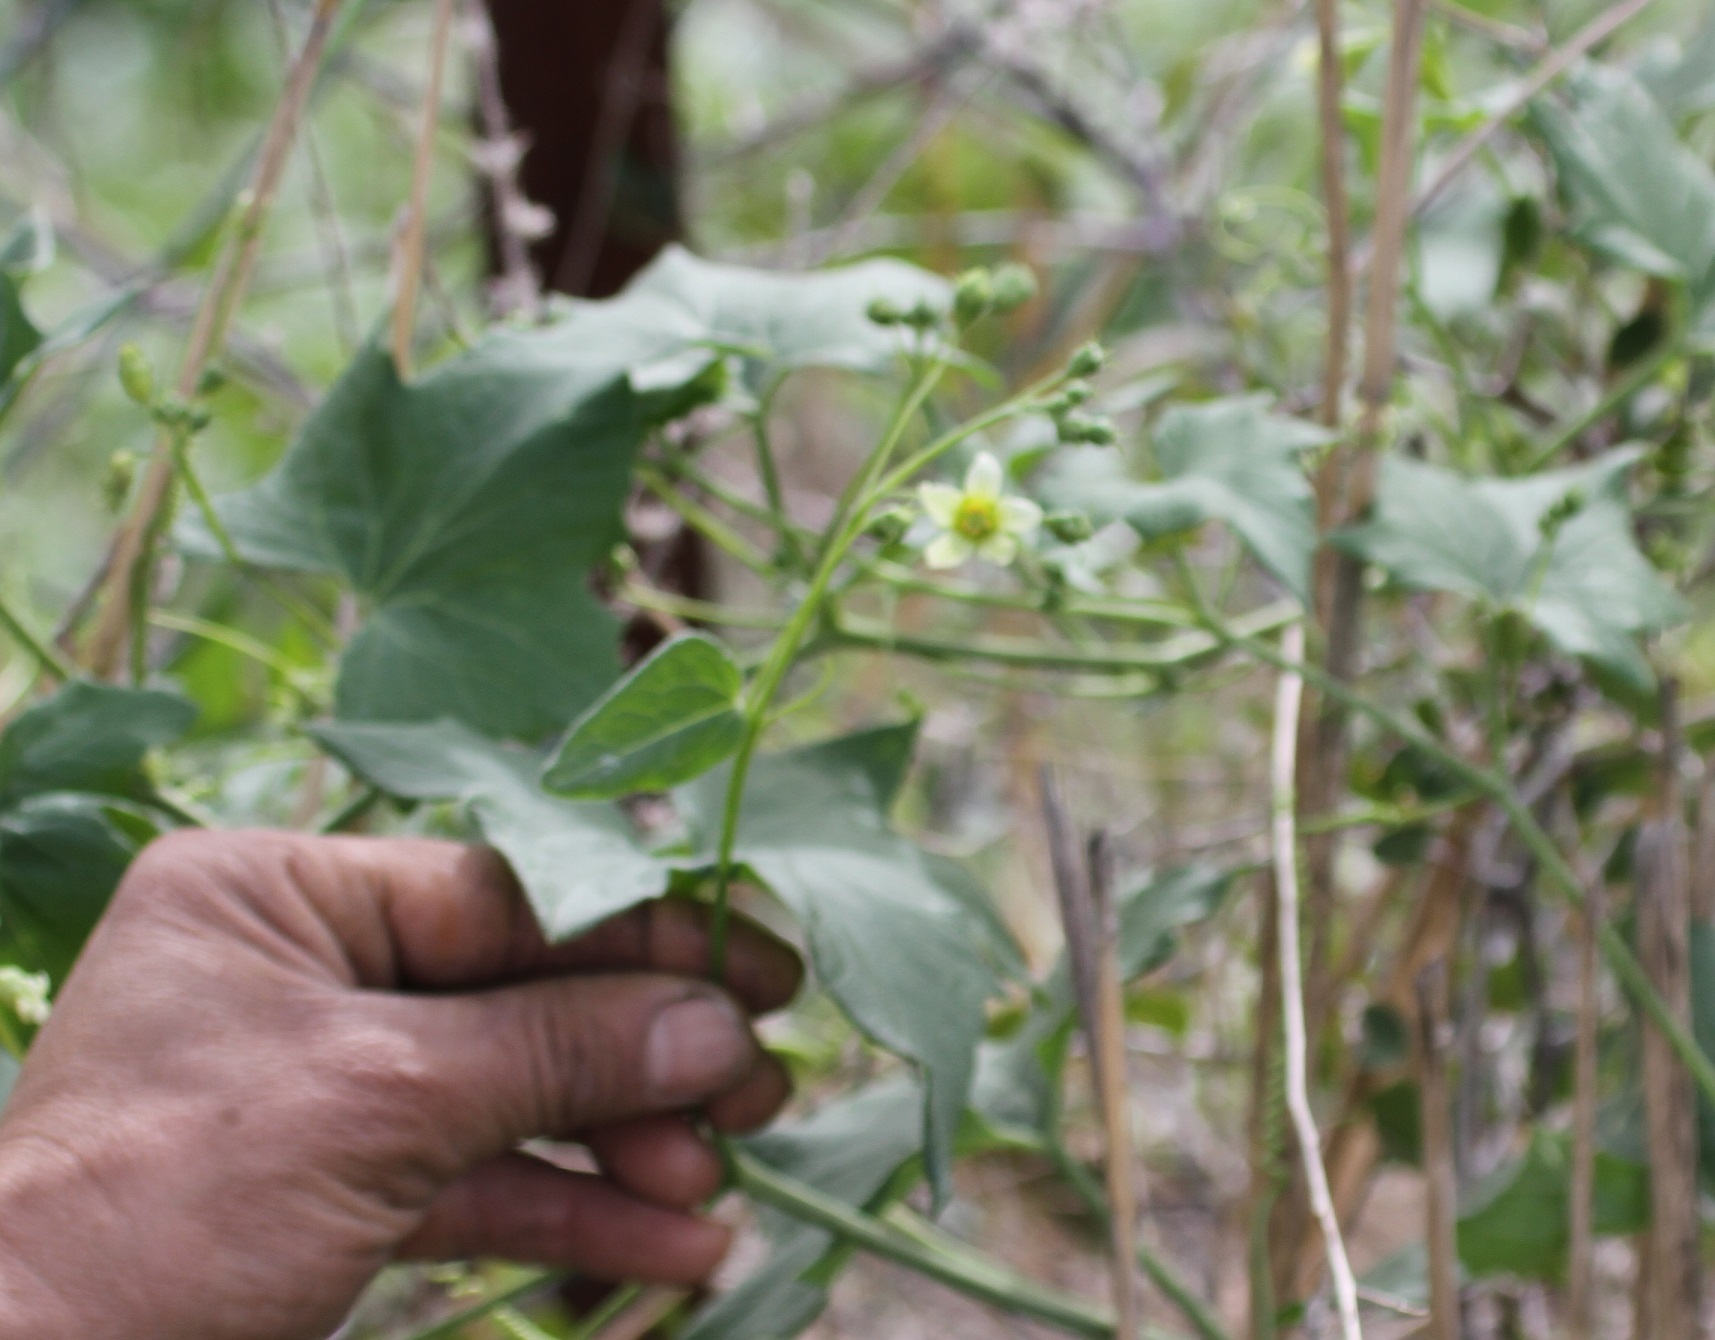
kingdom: Plantae
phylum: Tracheophyta
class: Magnoliopsida
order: Cucurbitales
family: Cucurbitaceae
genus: Bryonia
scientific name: Bryonia cretica
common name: Cretan bryony
